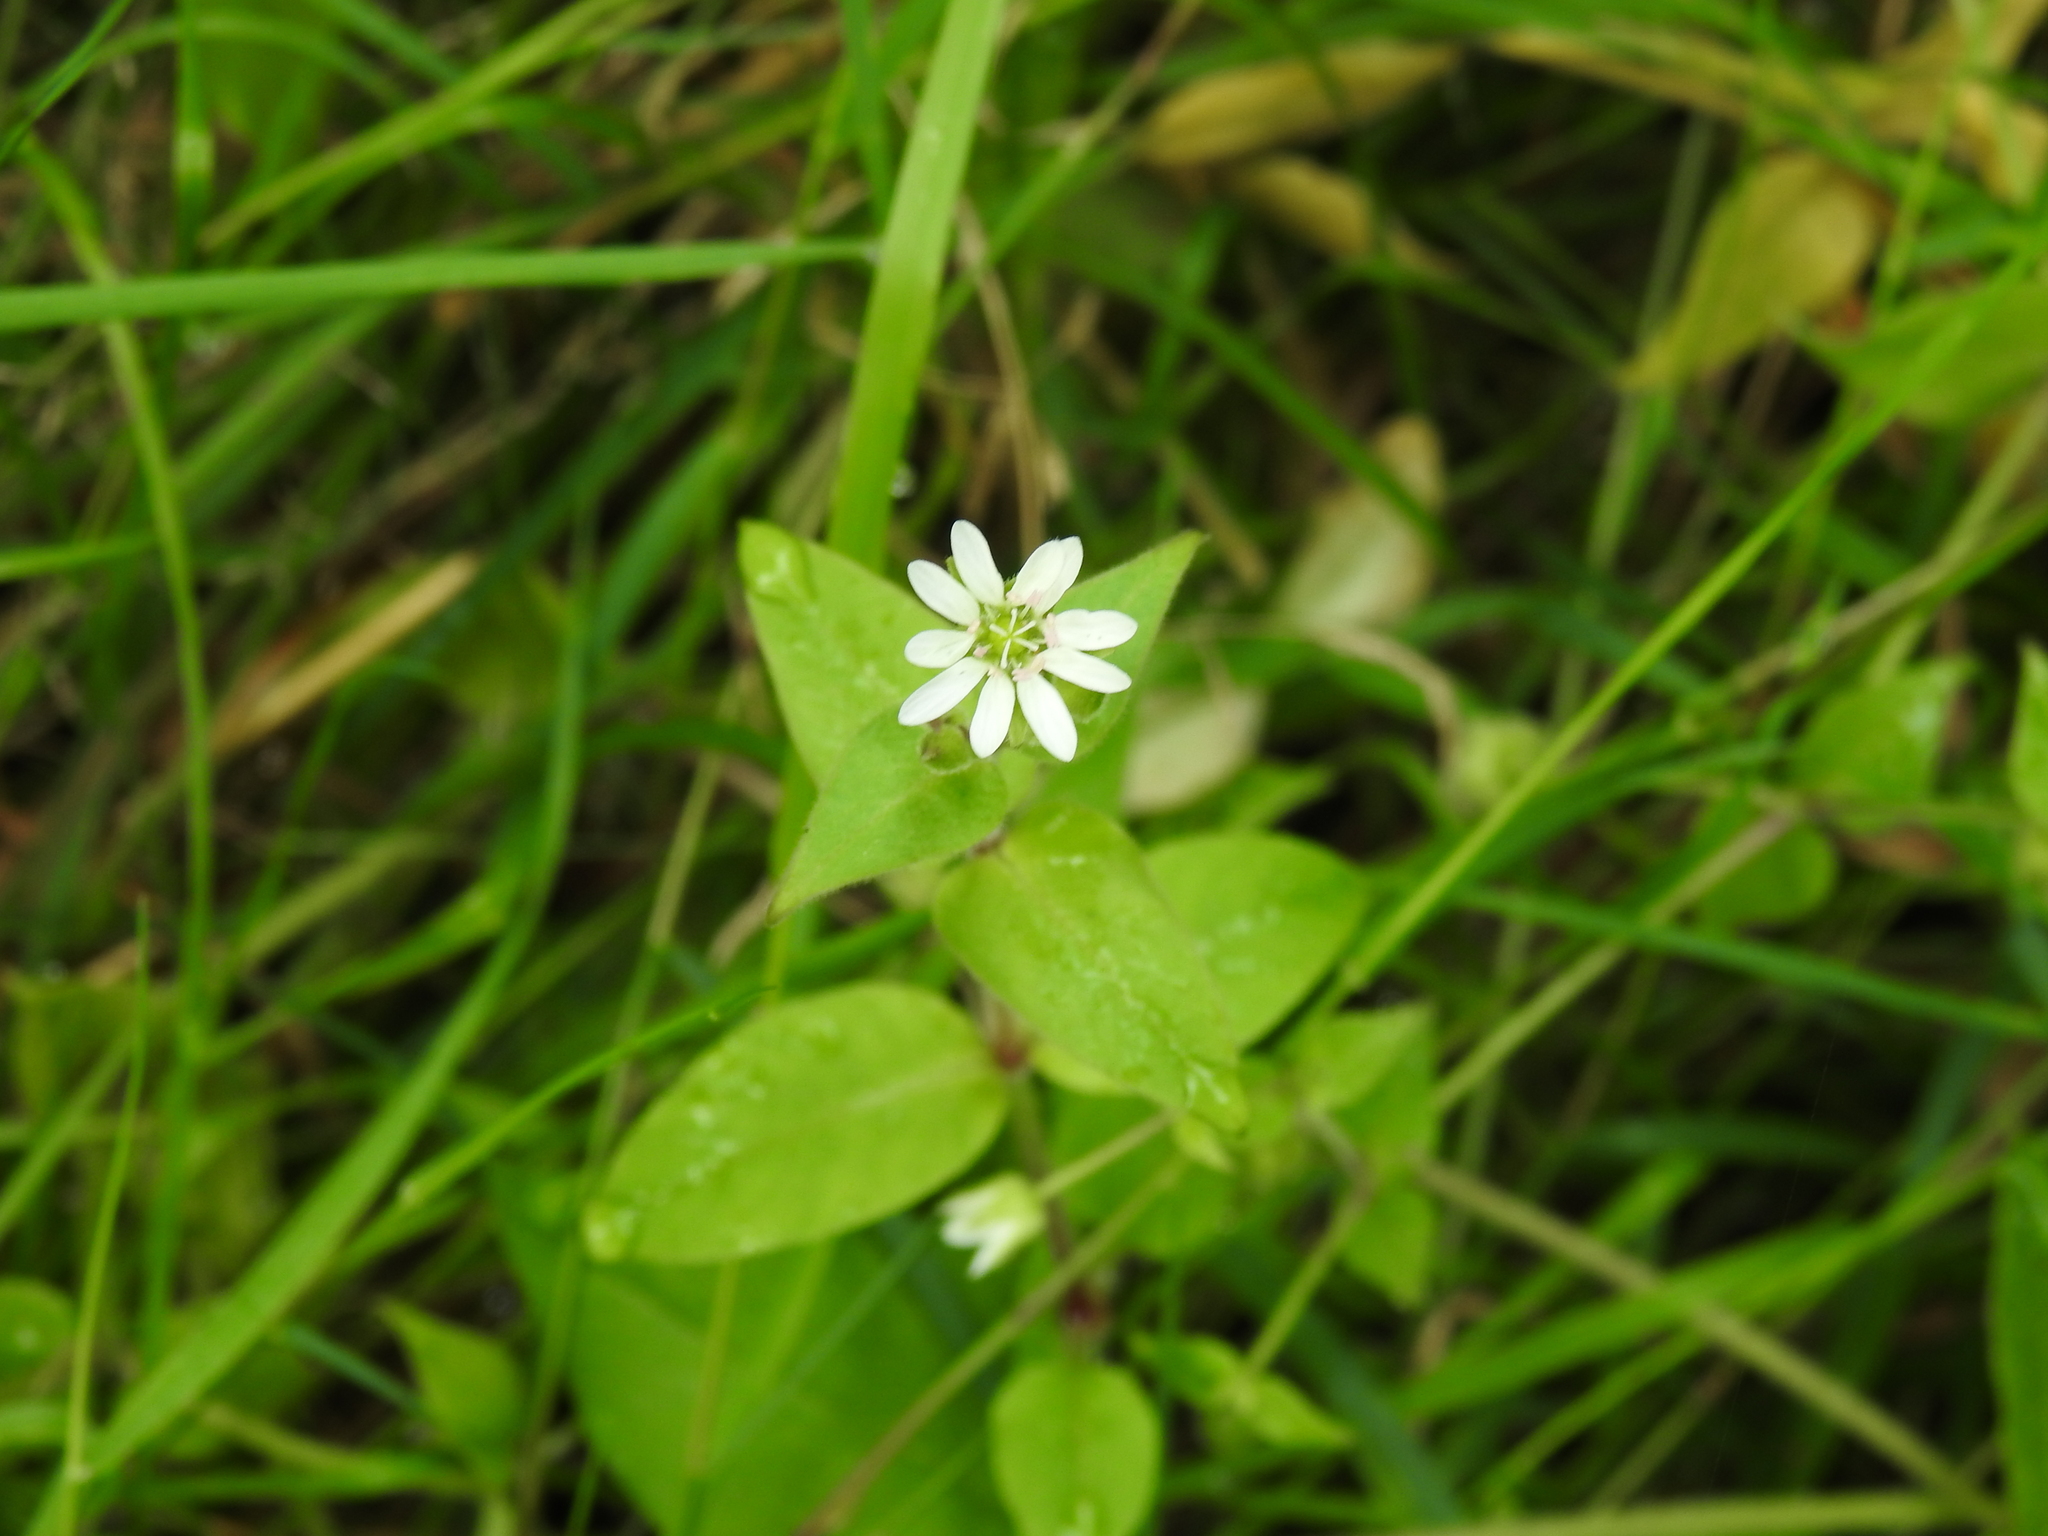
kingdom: Plantae
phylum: Tracheophyta
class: Magnoliopsida
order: Caryophyllales
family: Caryophyllaceae
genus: Stellaria
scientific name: Stellaria aquatica
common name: Water chickweed
